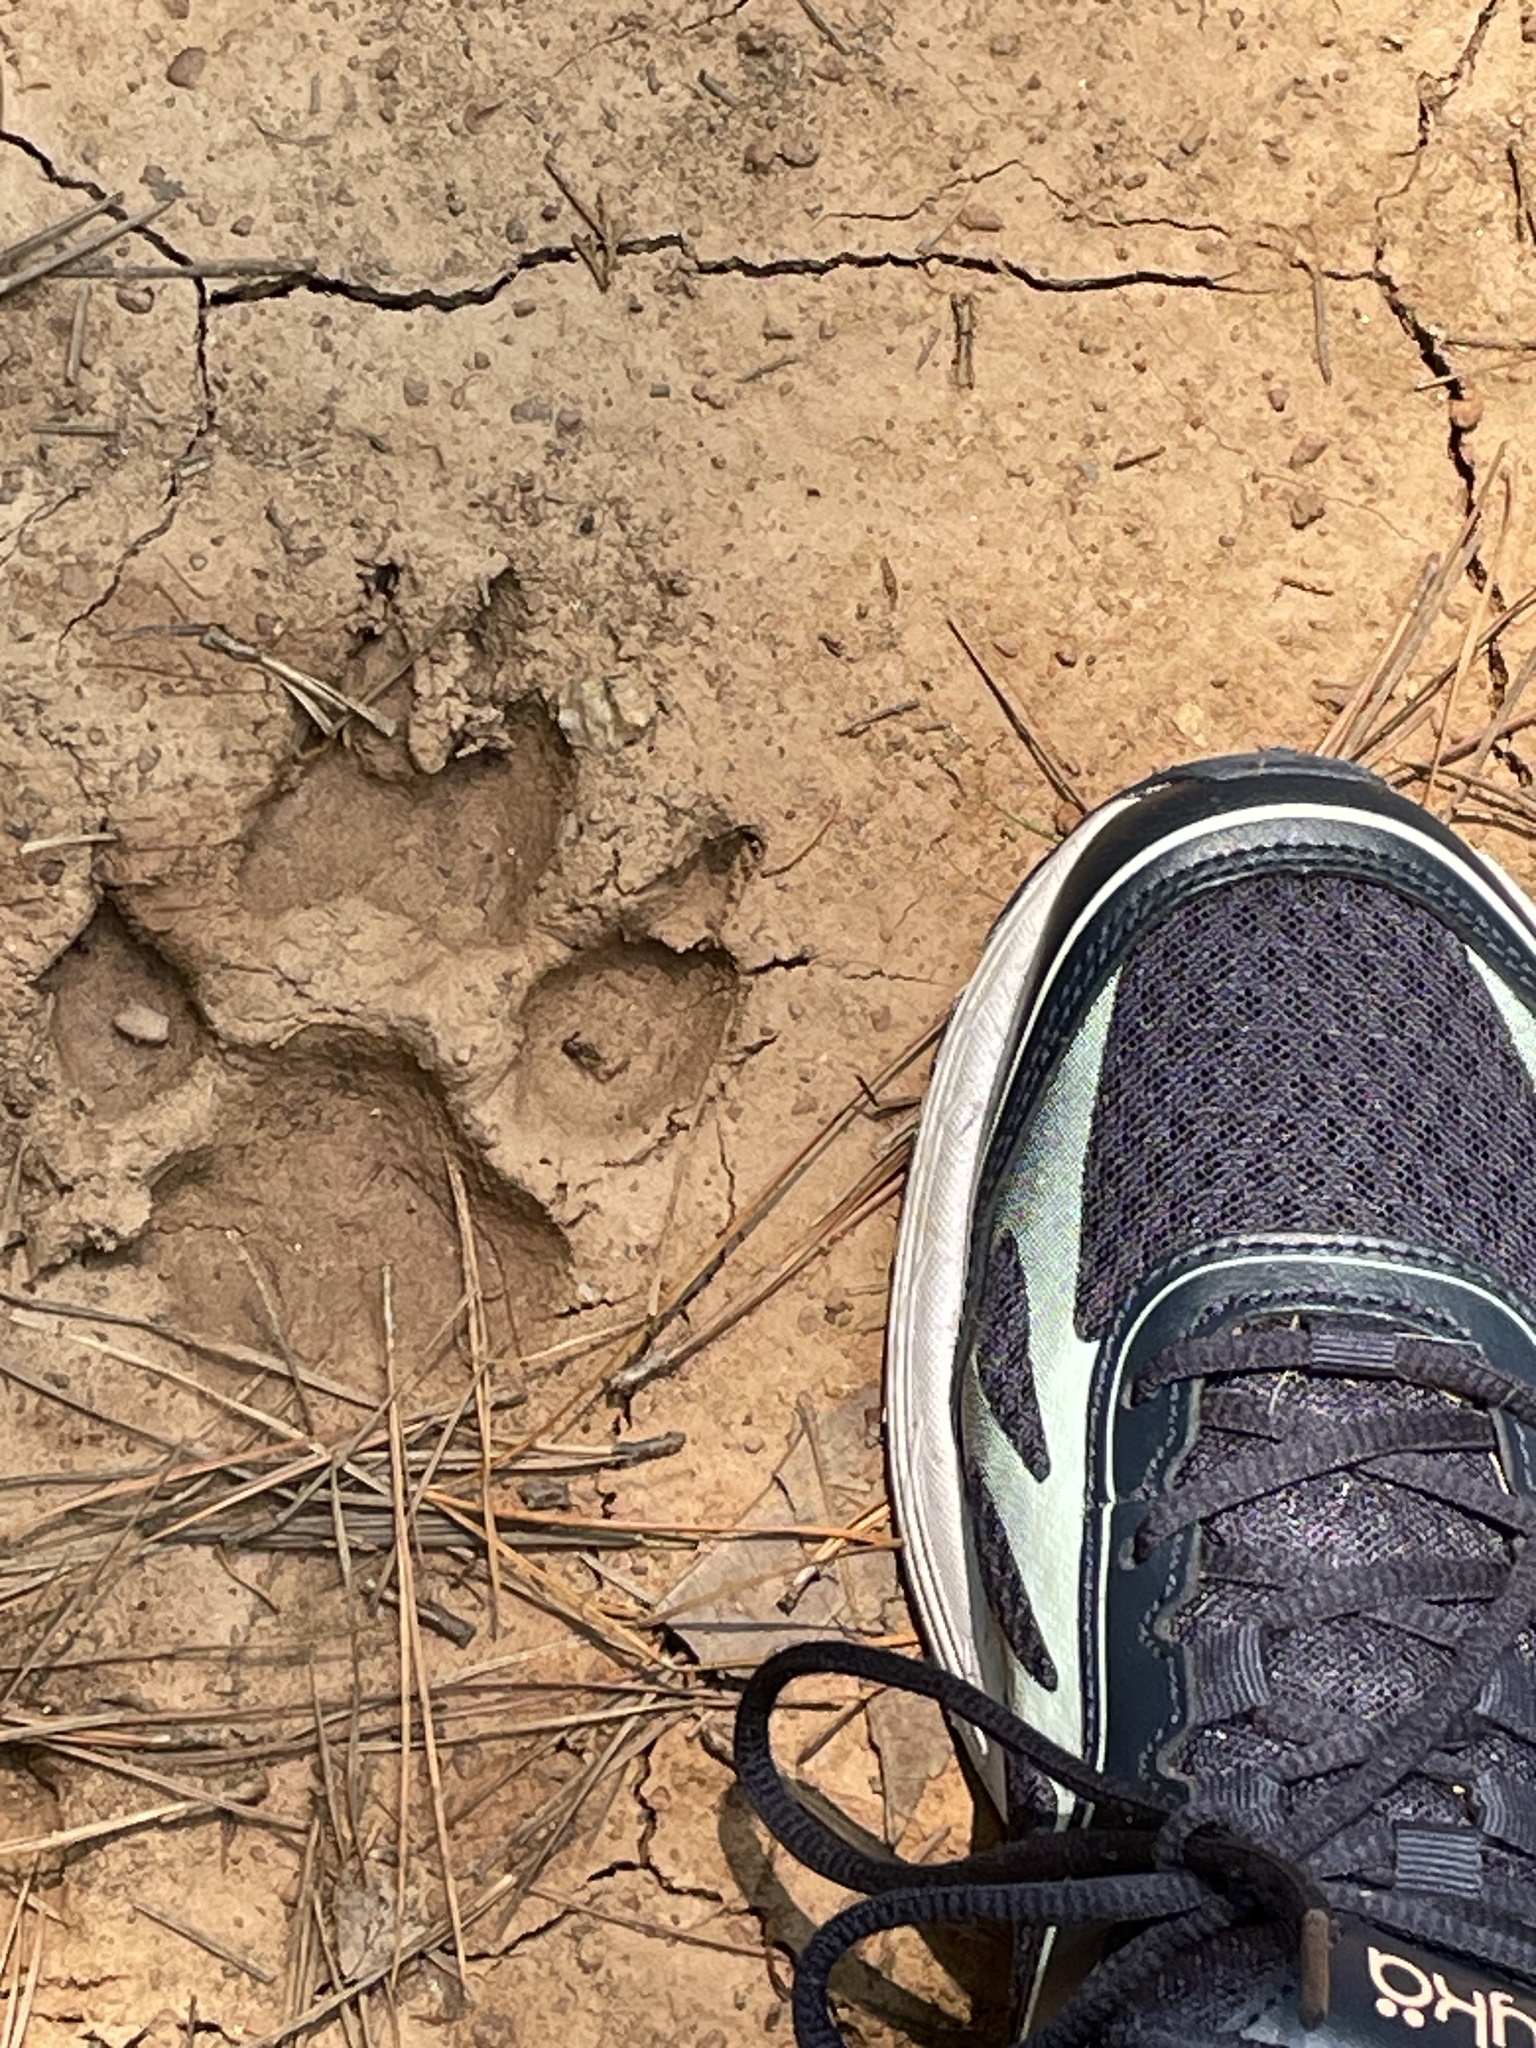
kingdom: Animalia
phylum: Chordata
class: Mammalia
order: Carnivora
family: Canidae
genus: Canis
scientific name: Canis latrans
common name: Coyote
